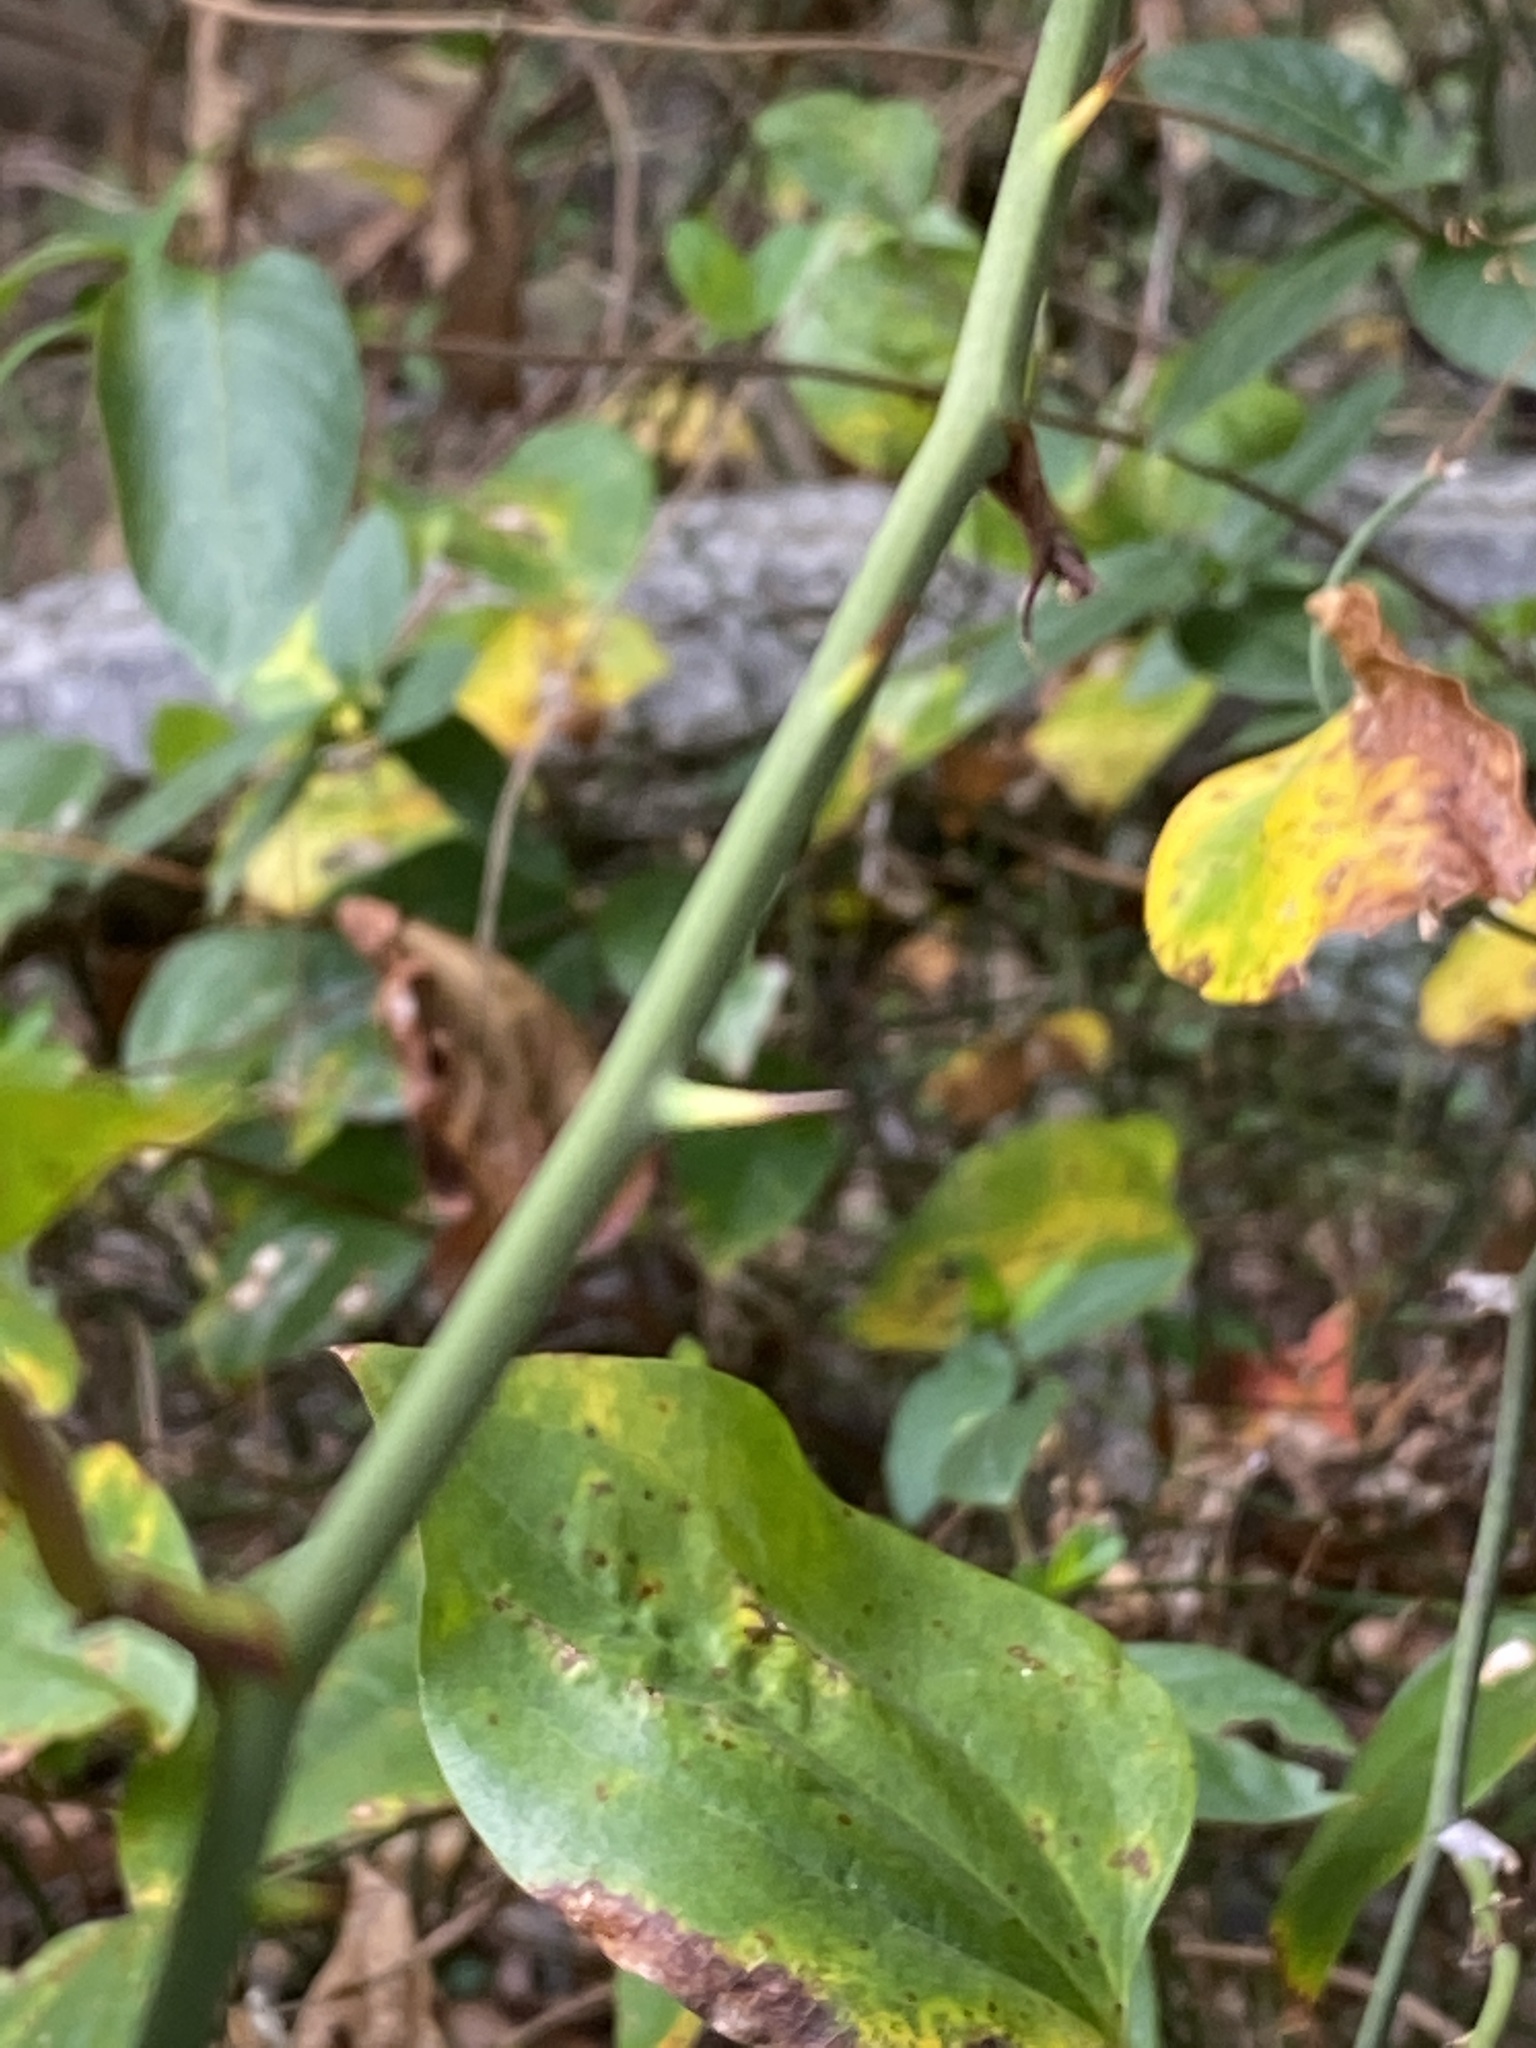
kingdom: Plantae
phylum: Tracheophyta
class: Liliopsida
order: Liliales
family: Smilacaceae
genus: Smilax
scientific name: Smilax rotundifolia
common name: Bullbriar
